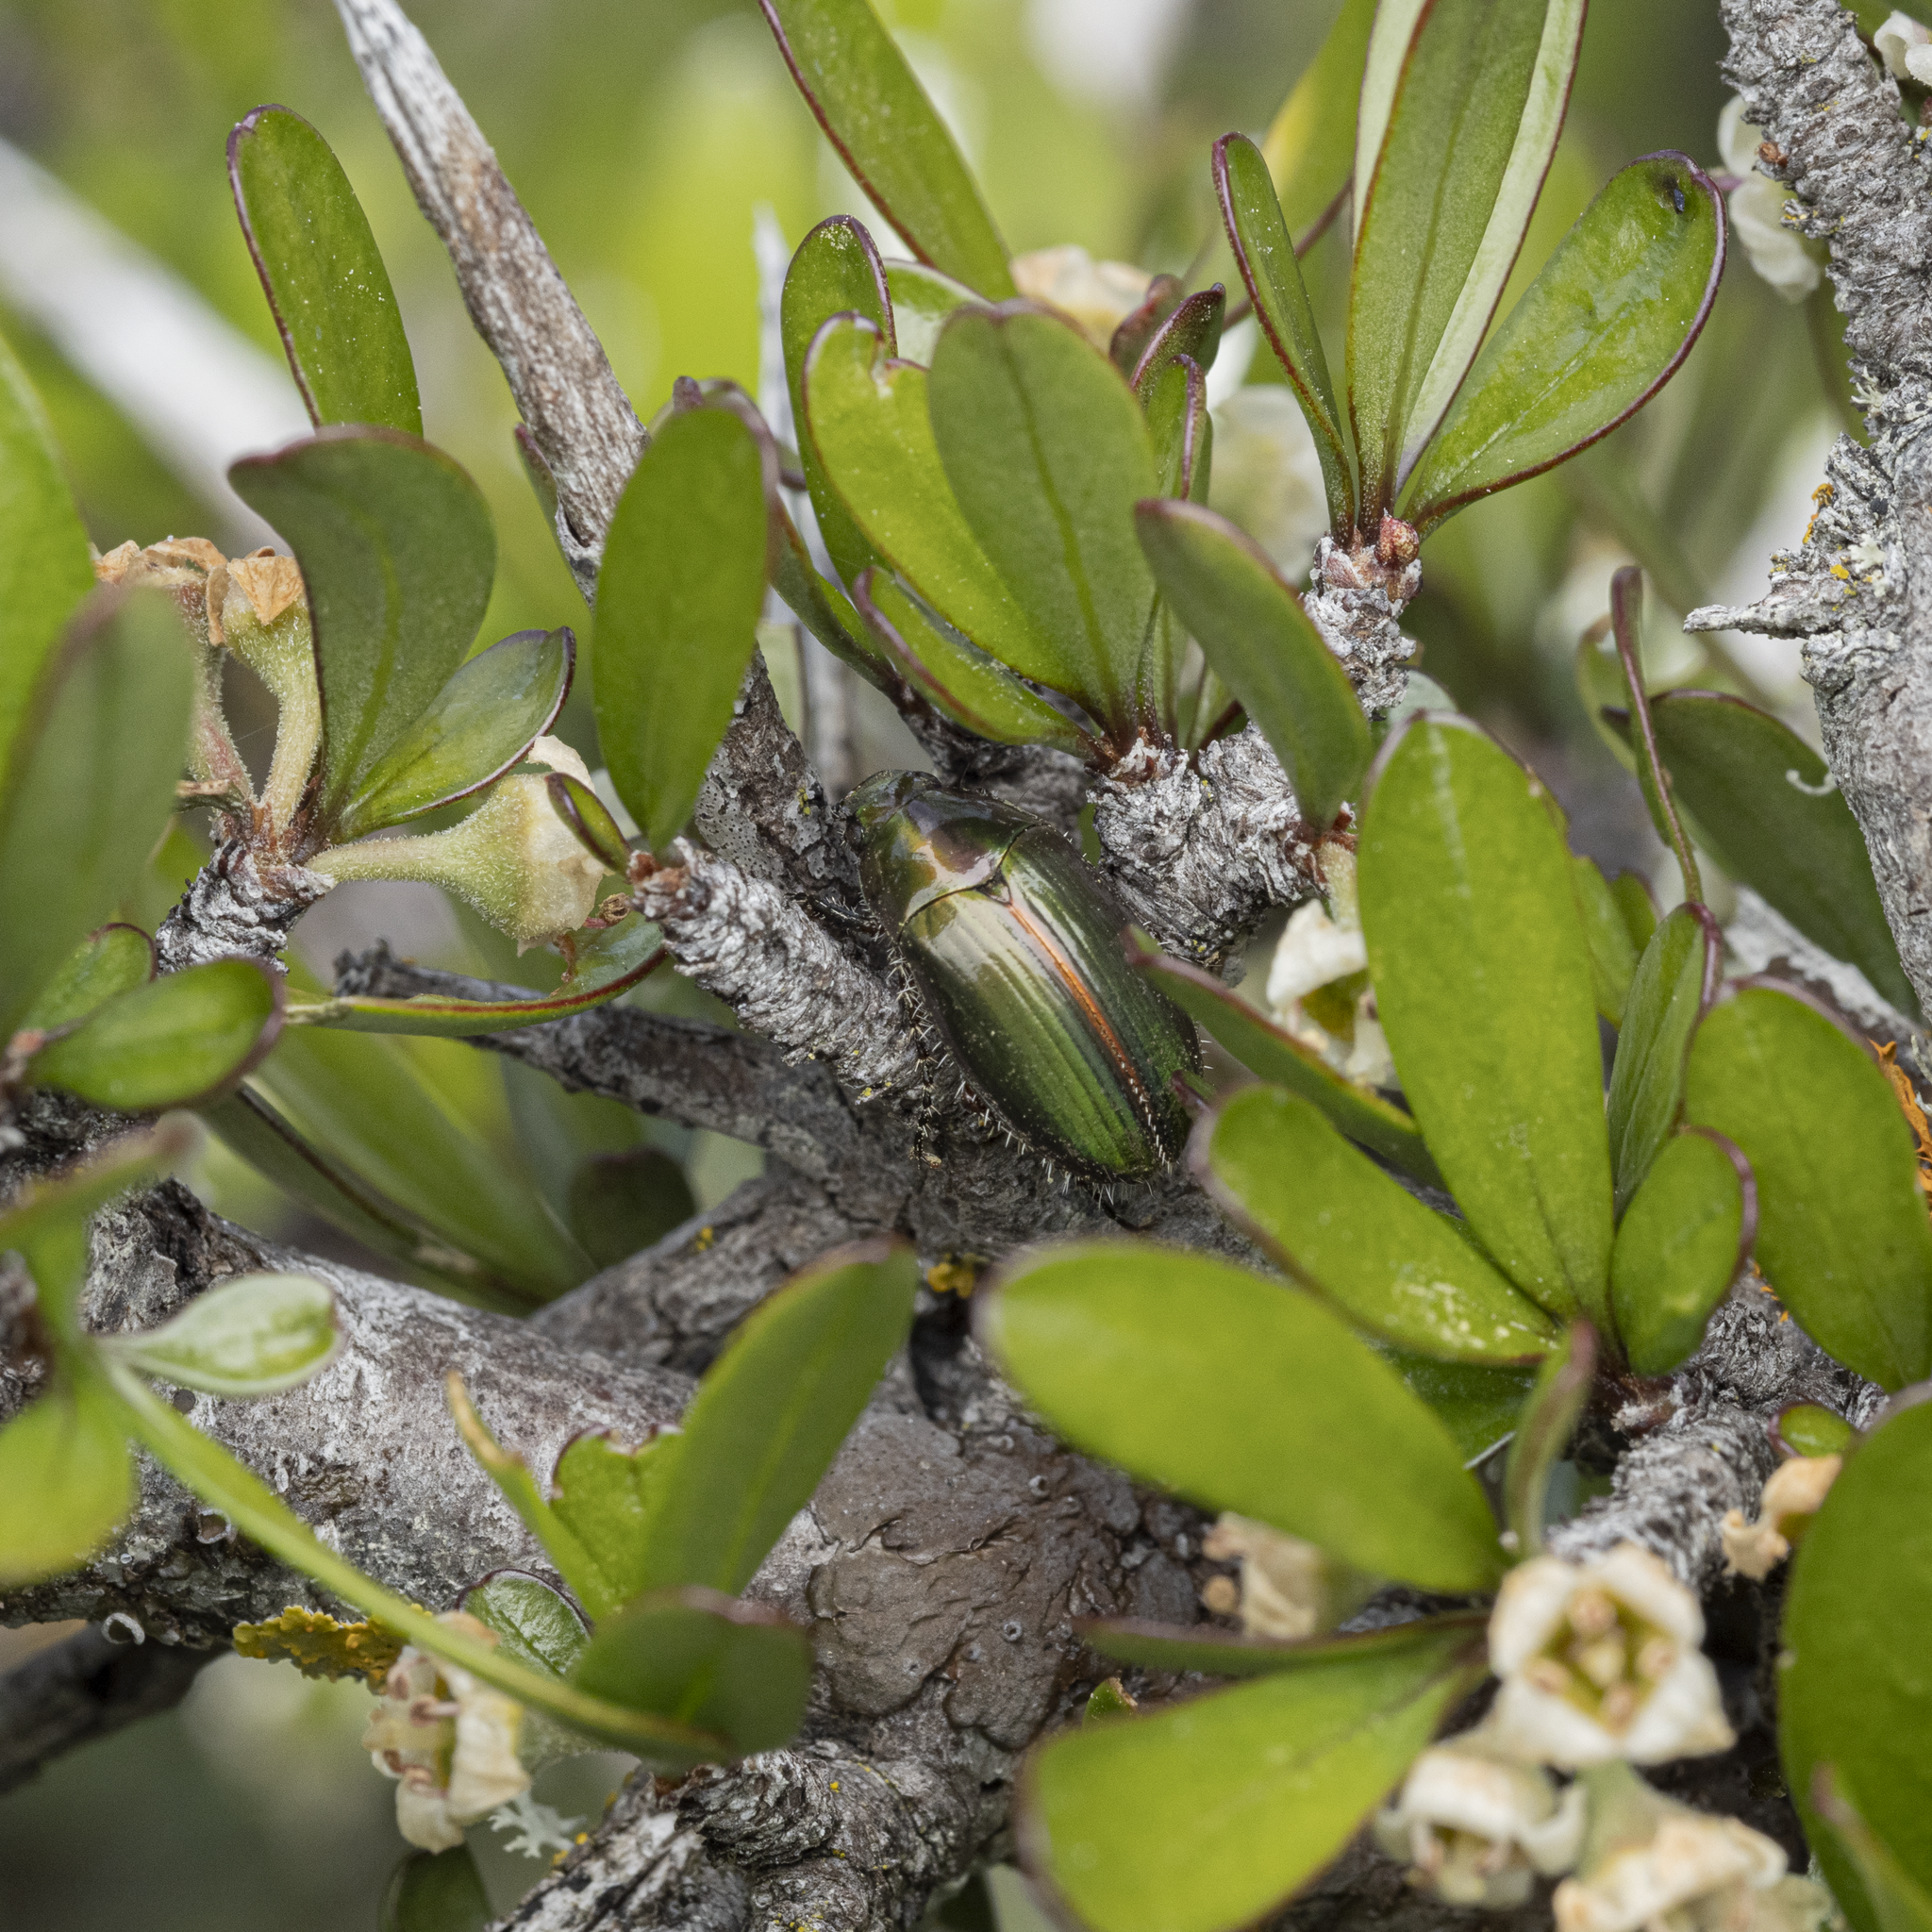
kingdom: Animalia
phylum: Arthropoda
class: Insecta
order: Coleoptera
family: Scarabaeidae
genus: Pyronota
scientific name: Pyronota edwardsi
